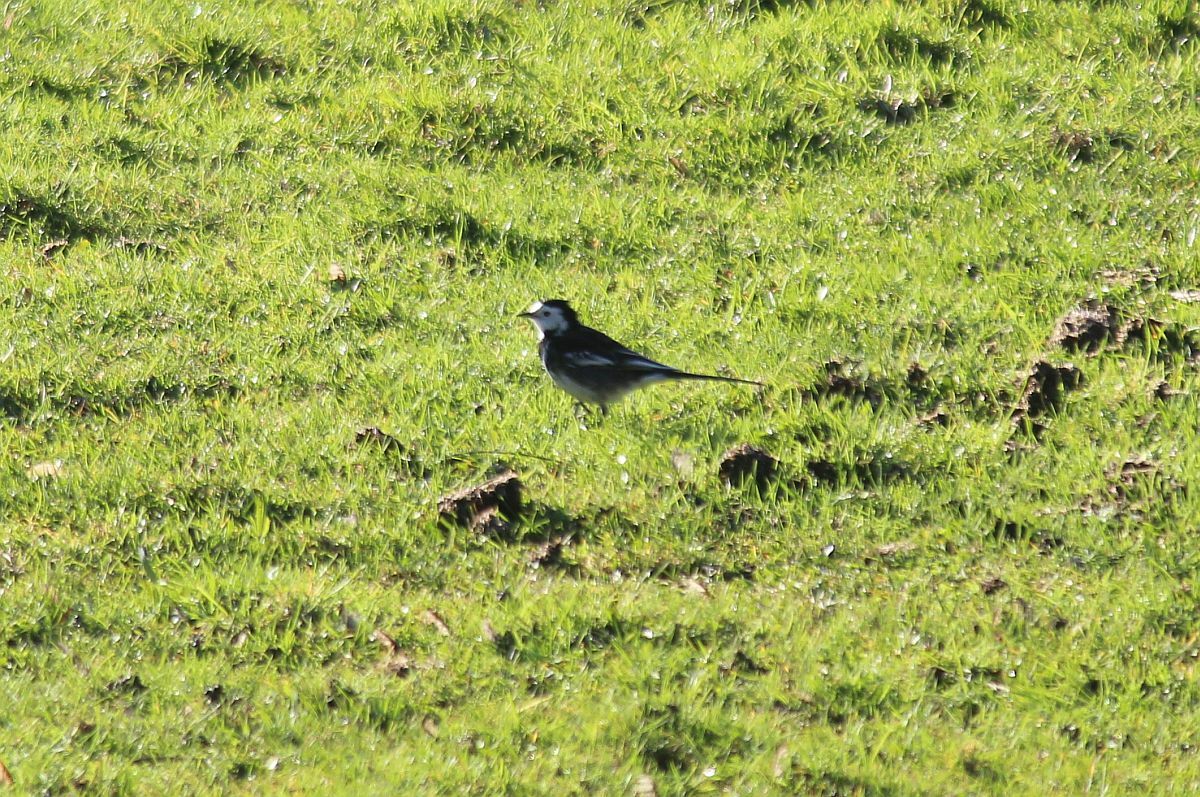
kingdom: Animalia
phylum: Chordata
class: Aves
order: Passeriformes
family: Motacillidae
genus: Motacilla
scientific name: Motacilla alba
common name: White wagtail
